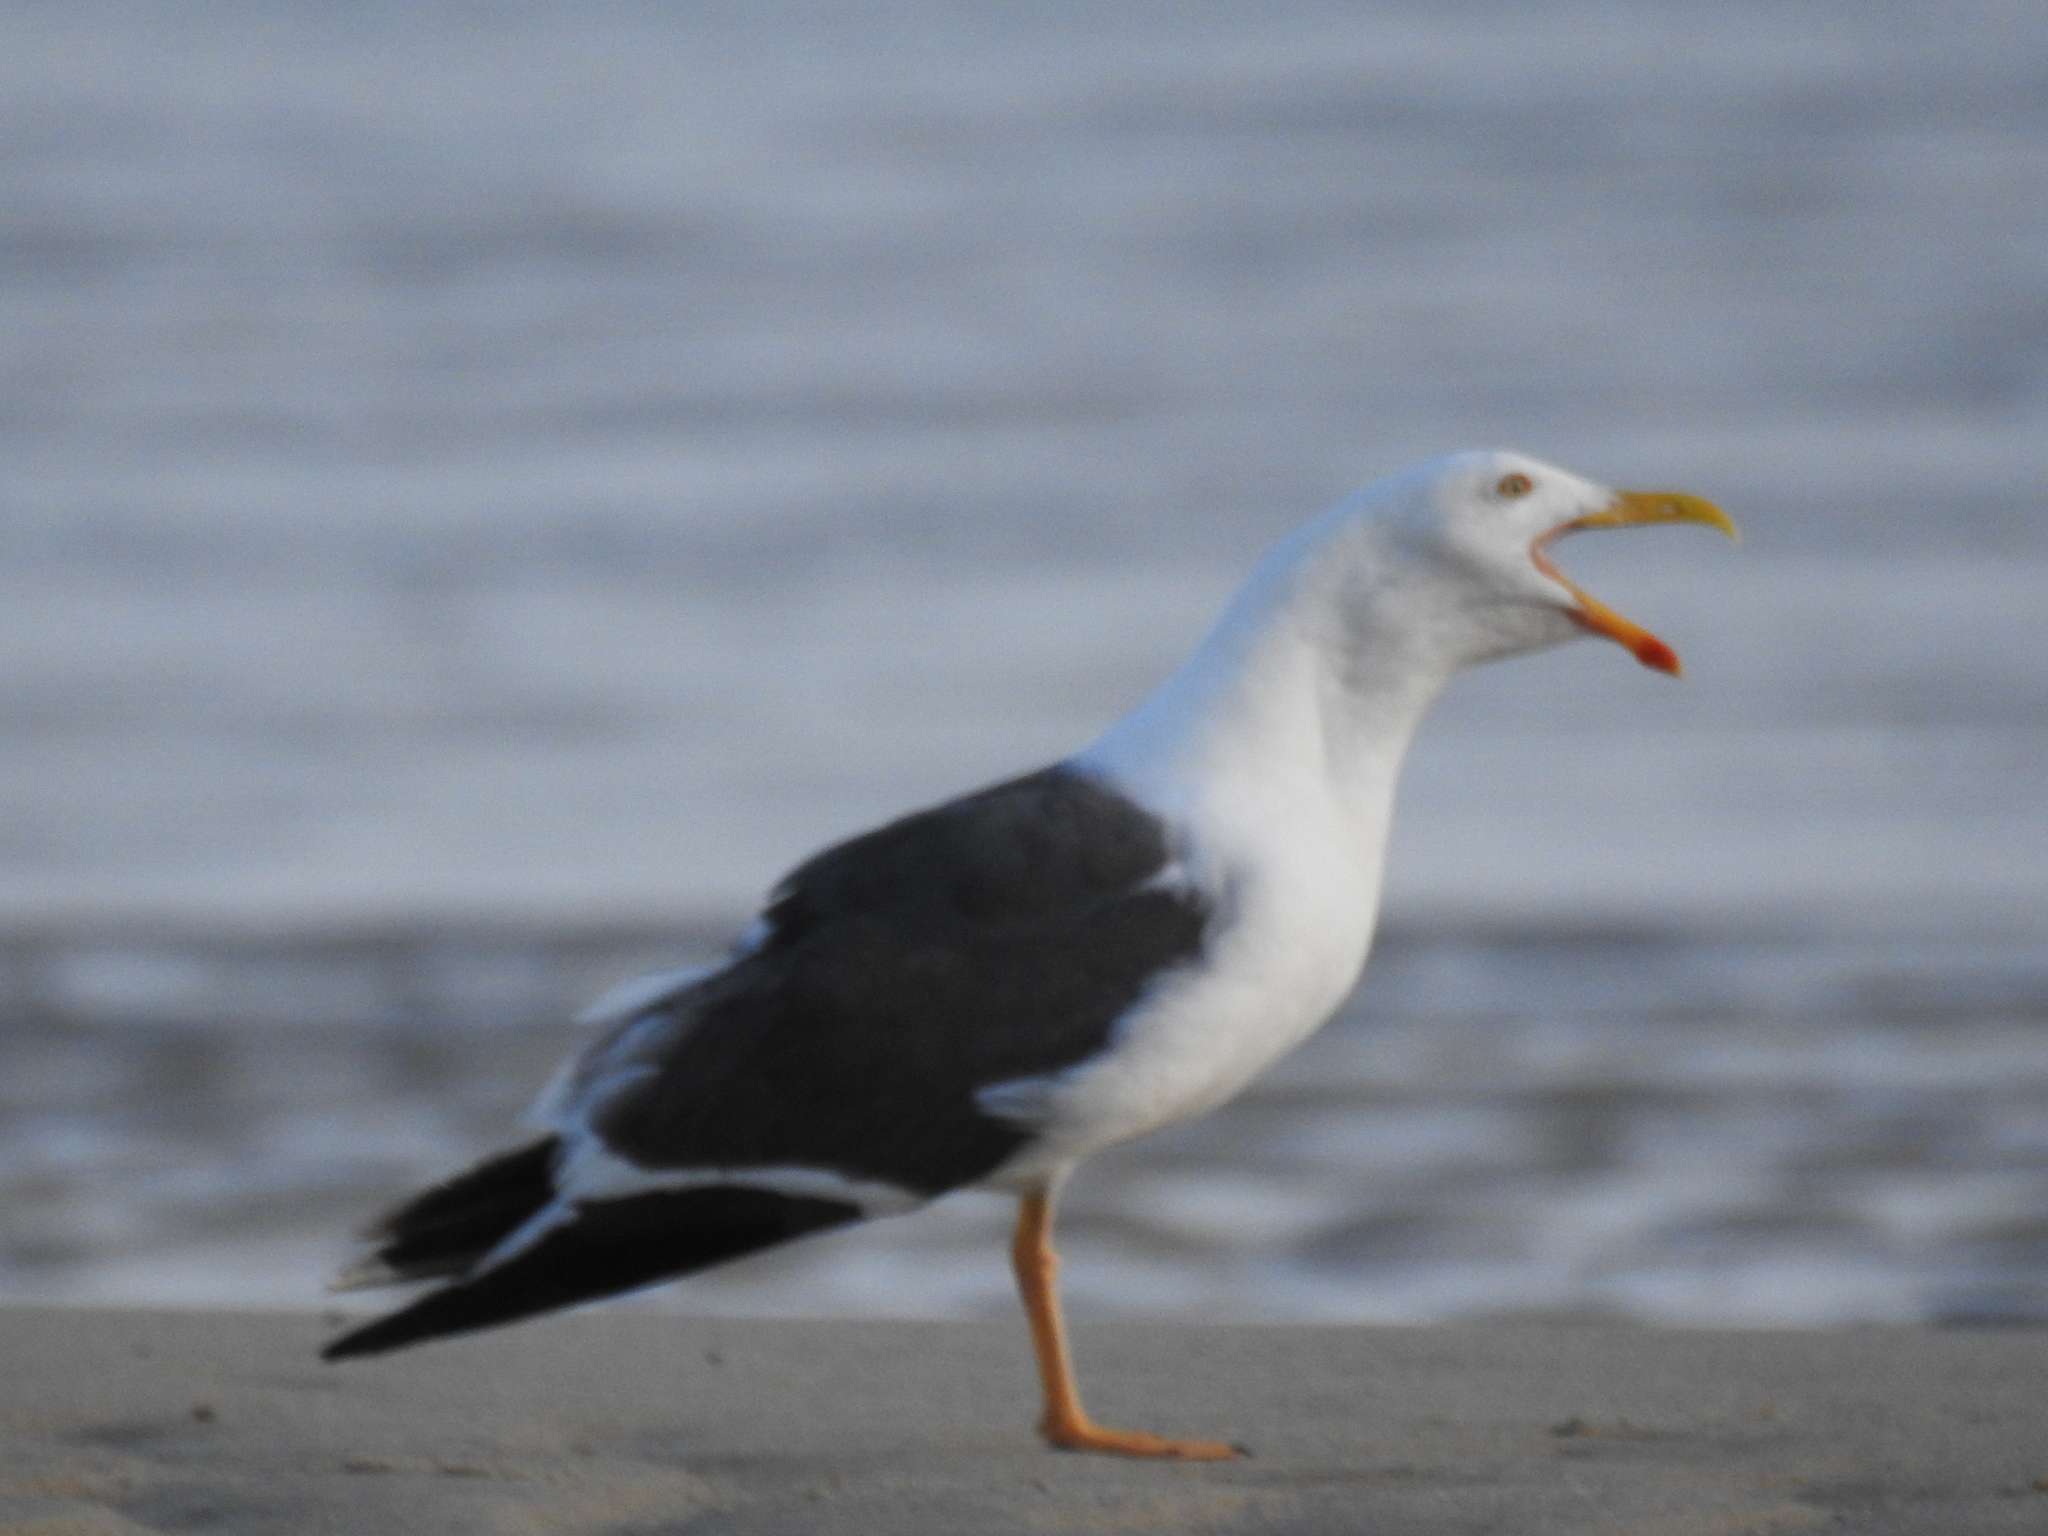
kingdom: Animalia
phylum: Chordata
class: Aves
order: Charadriiformes
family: Laridae
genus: Larus
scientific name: Larus livens
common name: Yellow-footed gull
